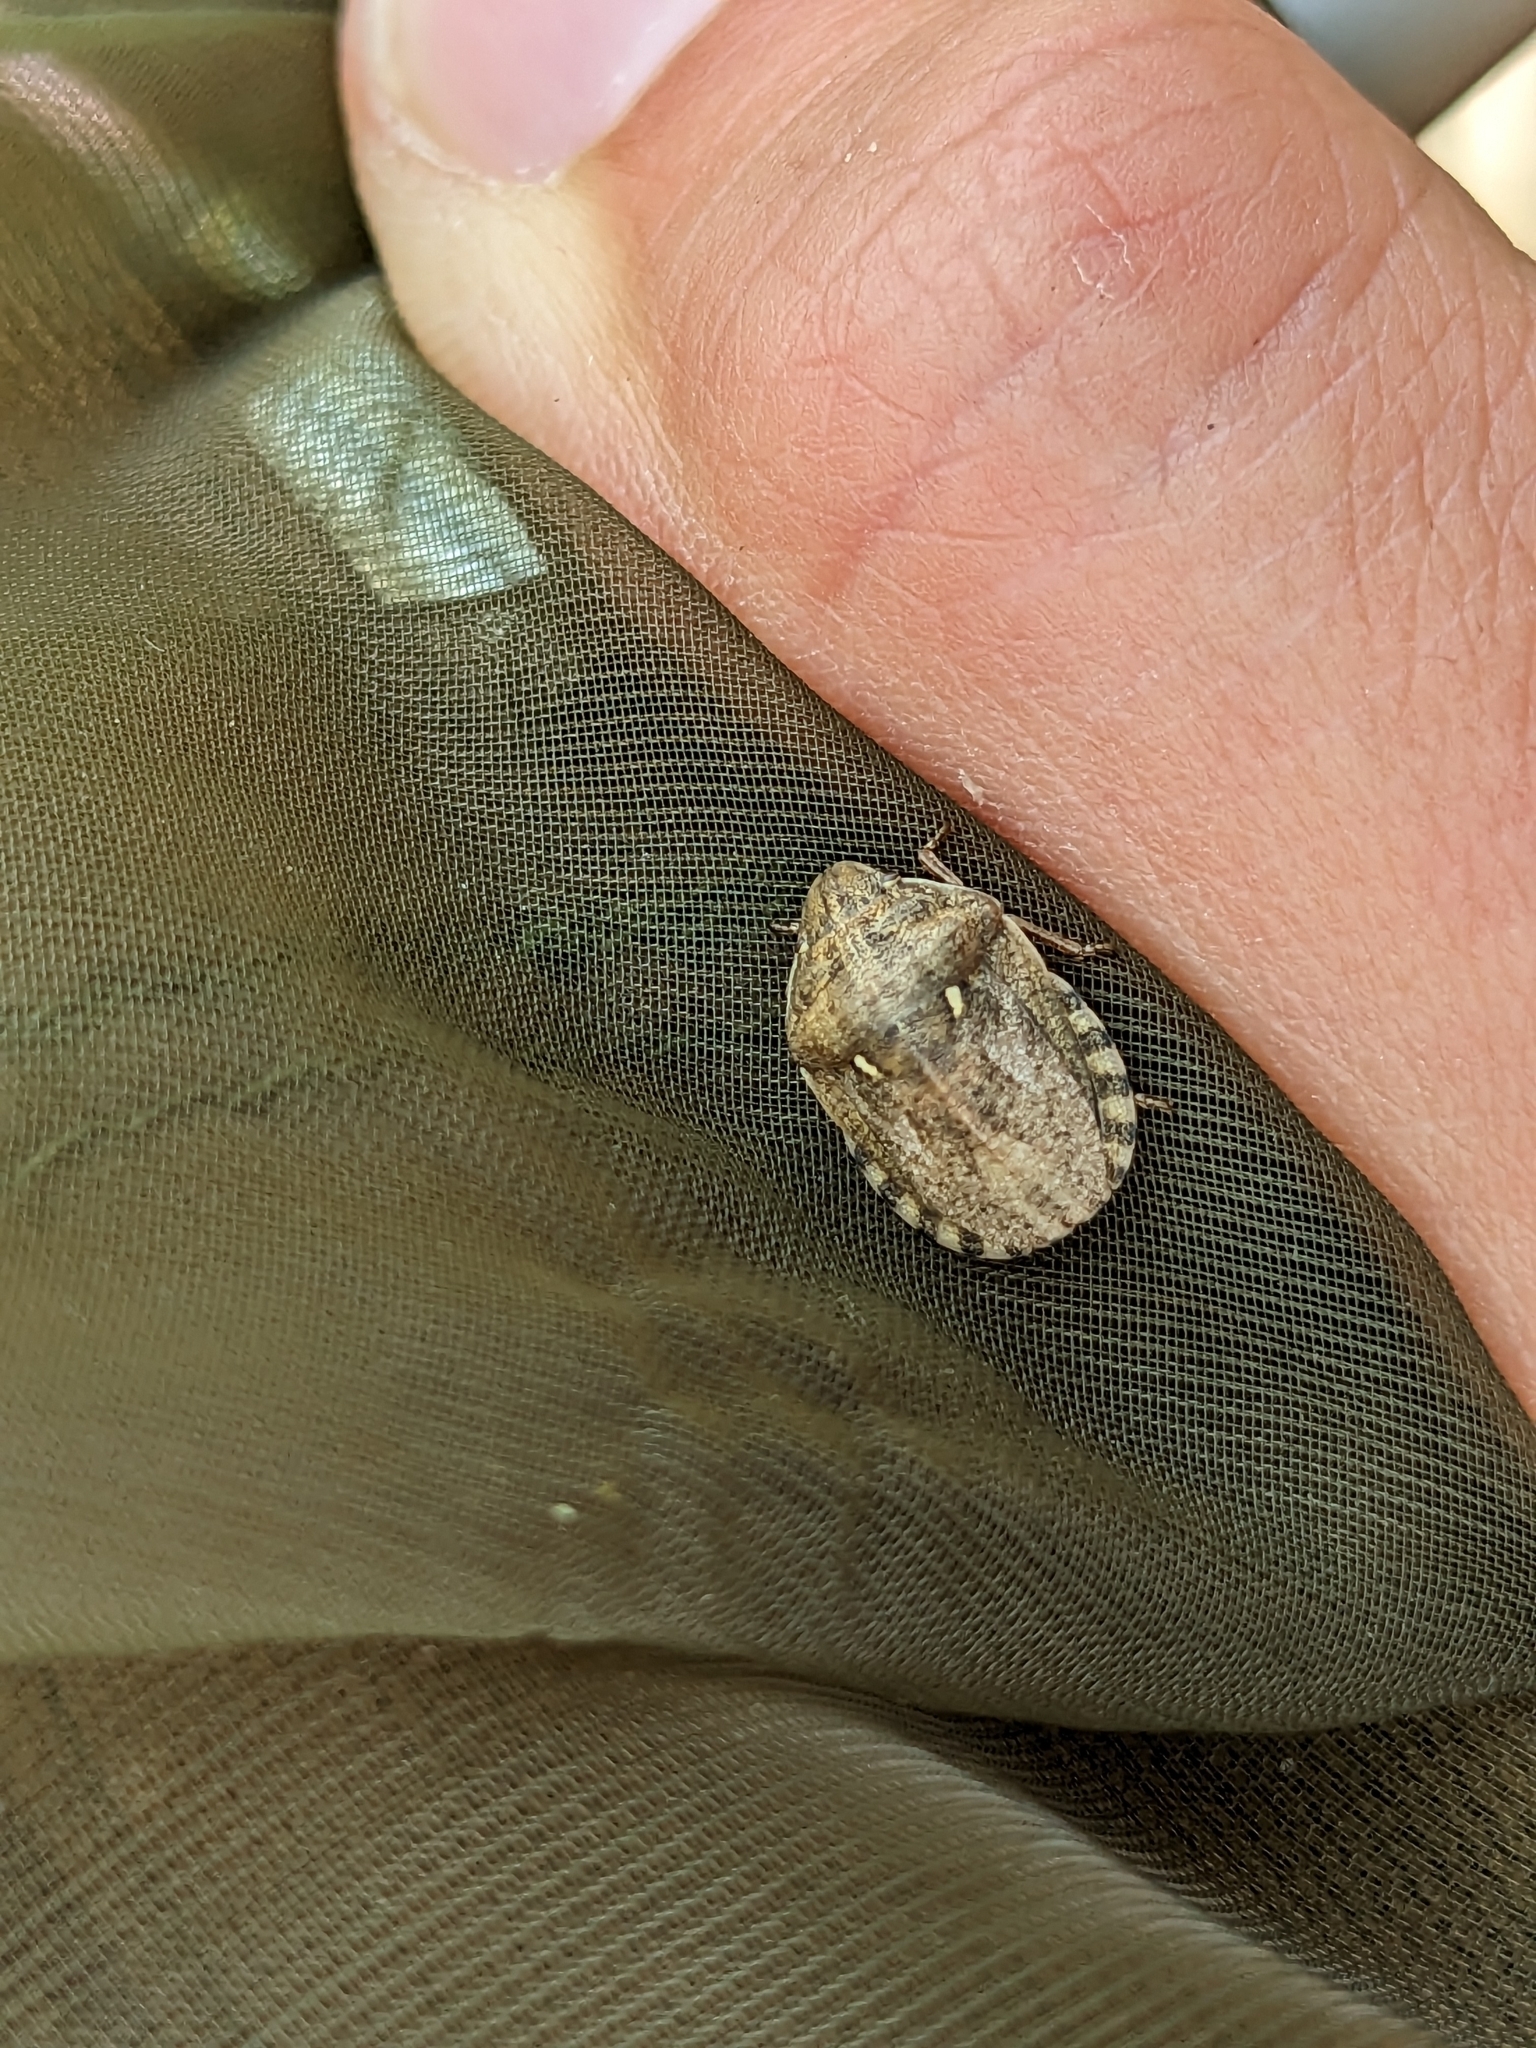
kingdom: Animalia
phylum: Arthropoda
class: Insecta
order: Hemiptera
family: Scutelleridae
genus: Eurygaster
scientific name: Eurygaster maura
